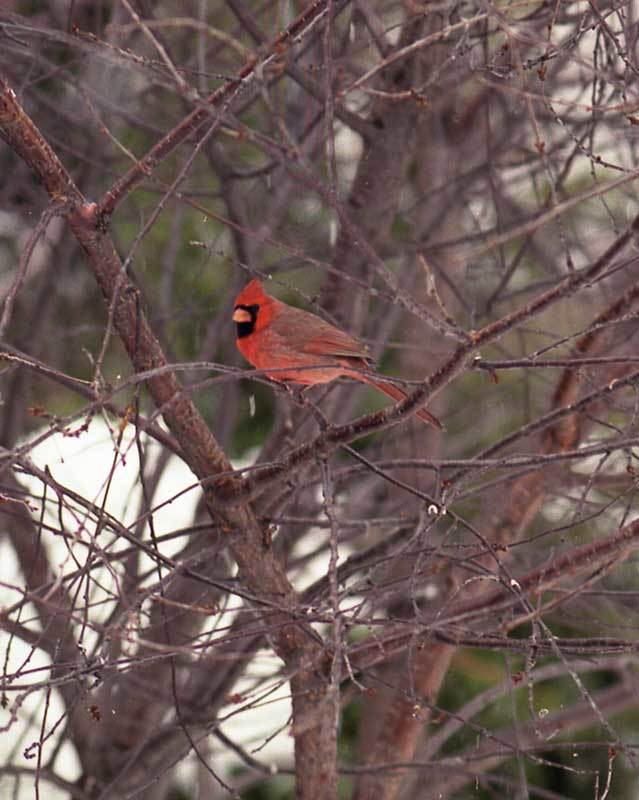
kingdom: Animalia
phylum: Chordata
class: Aves
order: Passeriformes
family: Cardinalidae
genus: Cardinalis
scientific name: Cardinalis cardinalis
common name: Northern cardinal
